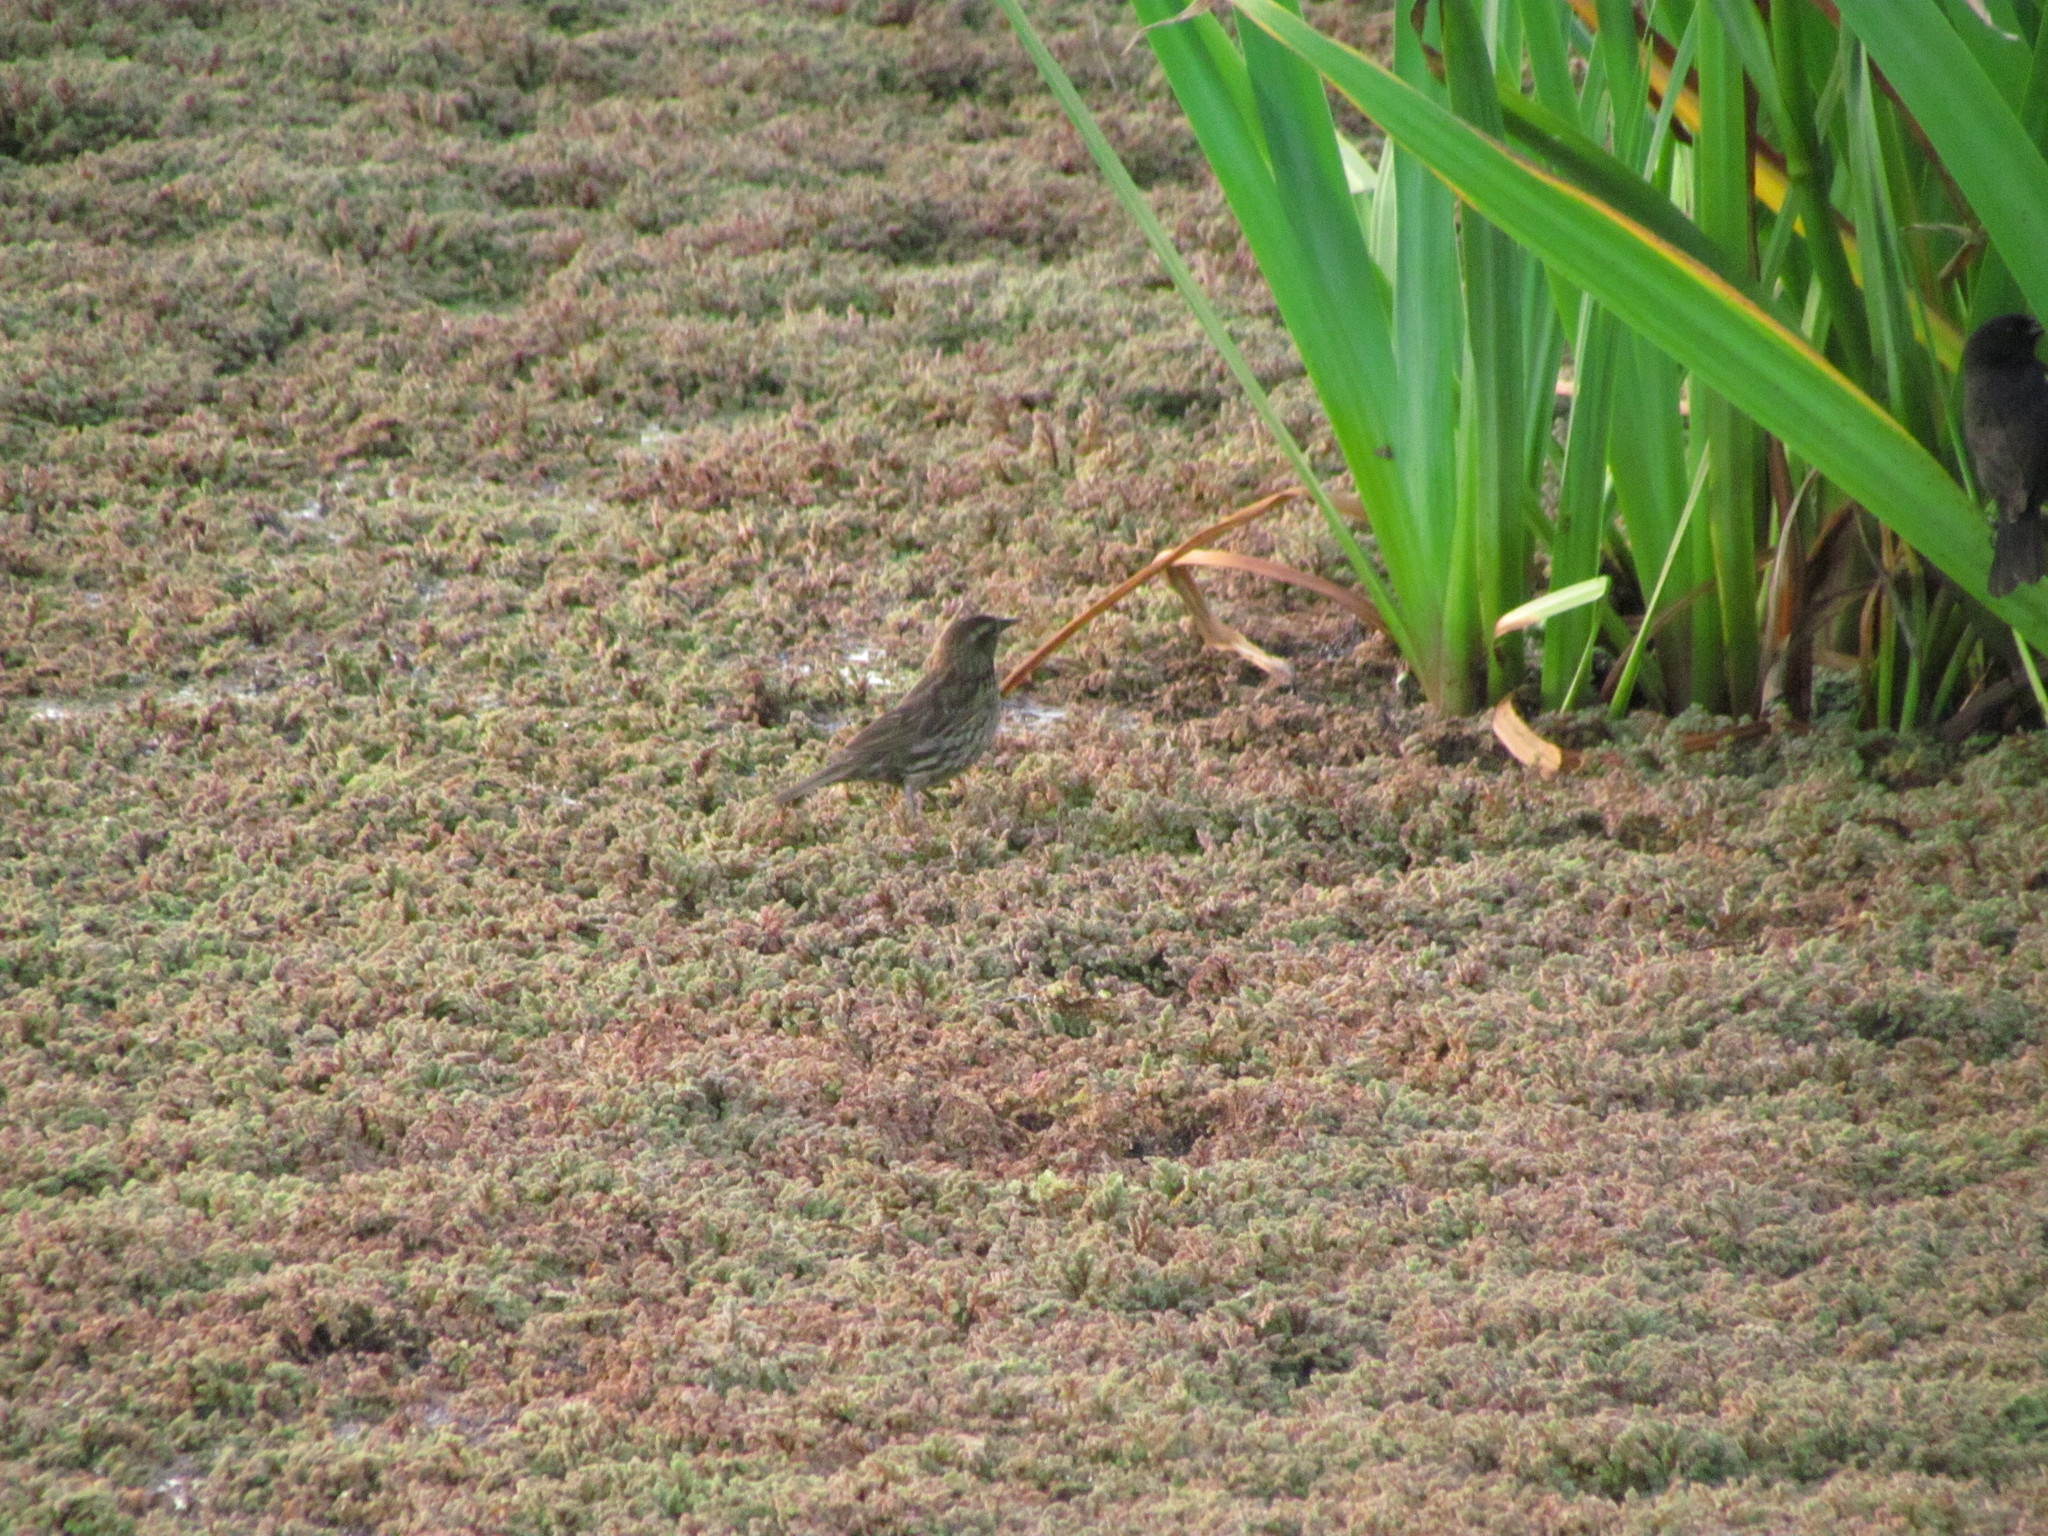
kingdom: Animalia
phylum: Chordata
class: Aves
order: Passeriformes
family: Icteridae
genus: Agelasticus
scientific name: Agelasticus thilius
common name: Yellow-winged blackbird
